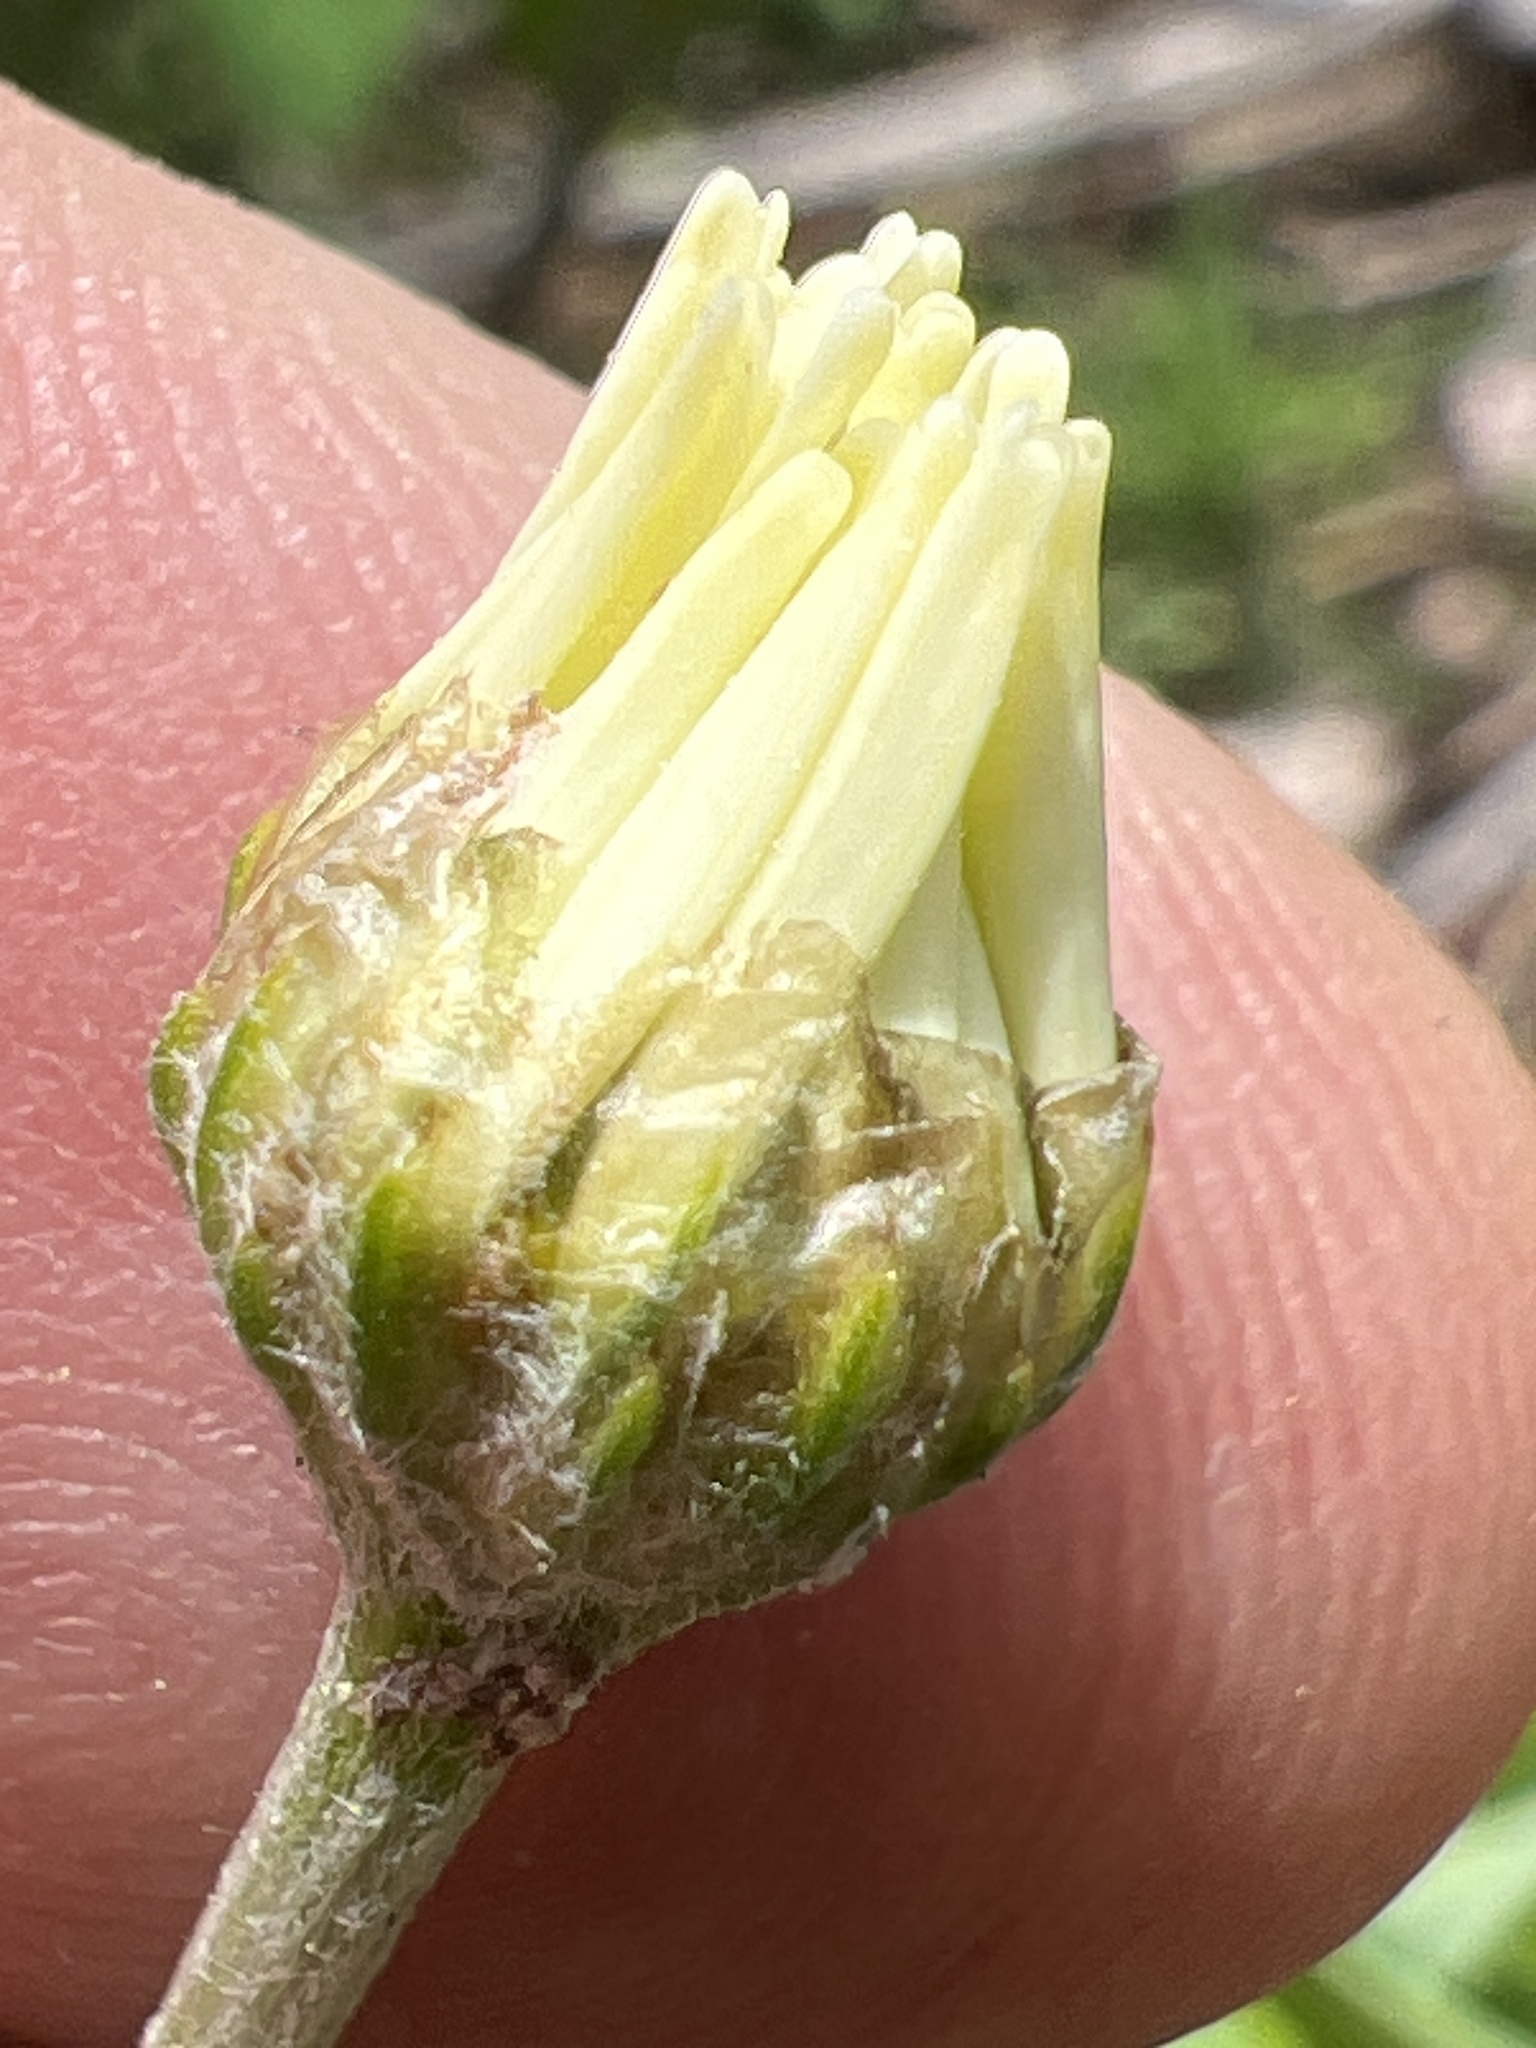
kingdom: Plantae
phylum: Tracheophyta
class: Magnoliopsida
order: Asterales
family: Asteraceae
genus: Anthemis
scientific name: Anthemis arvensis
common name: Corn chamomile
